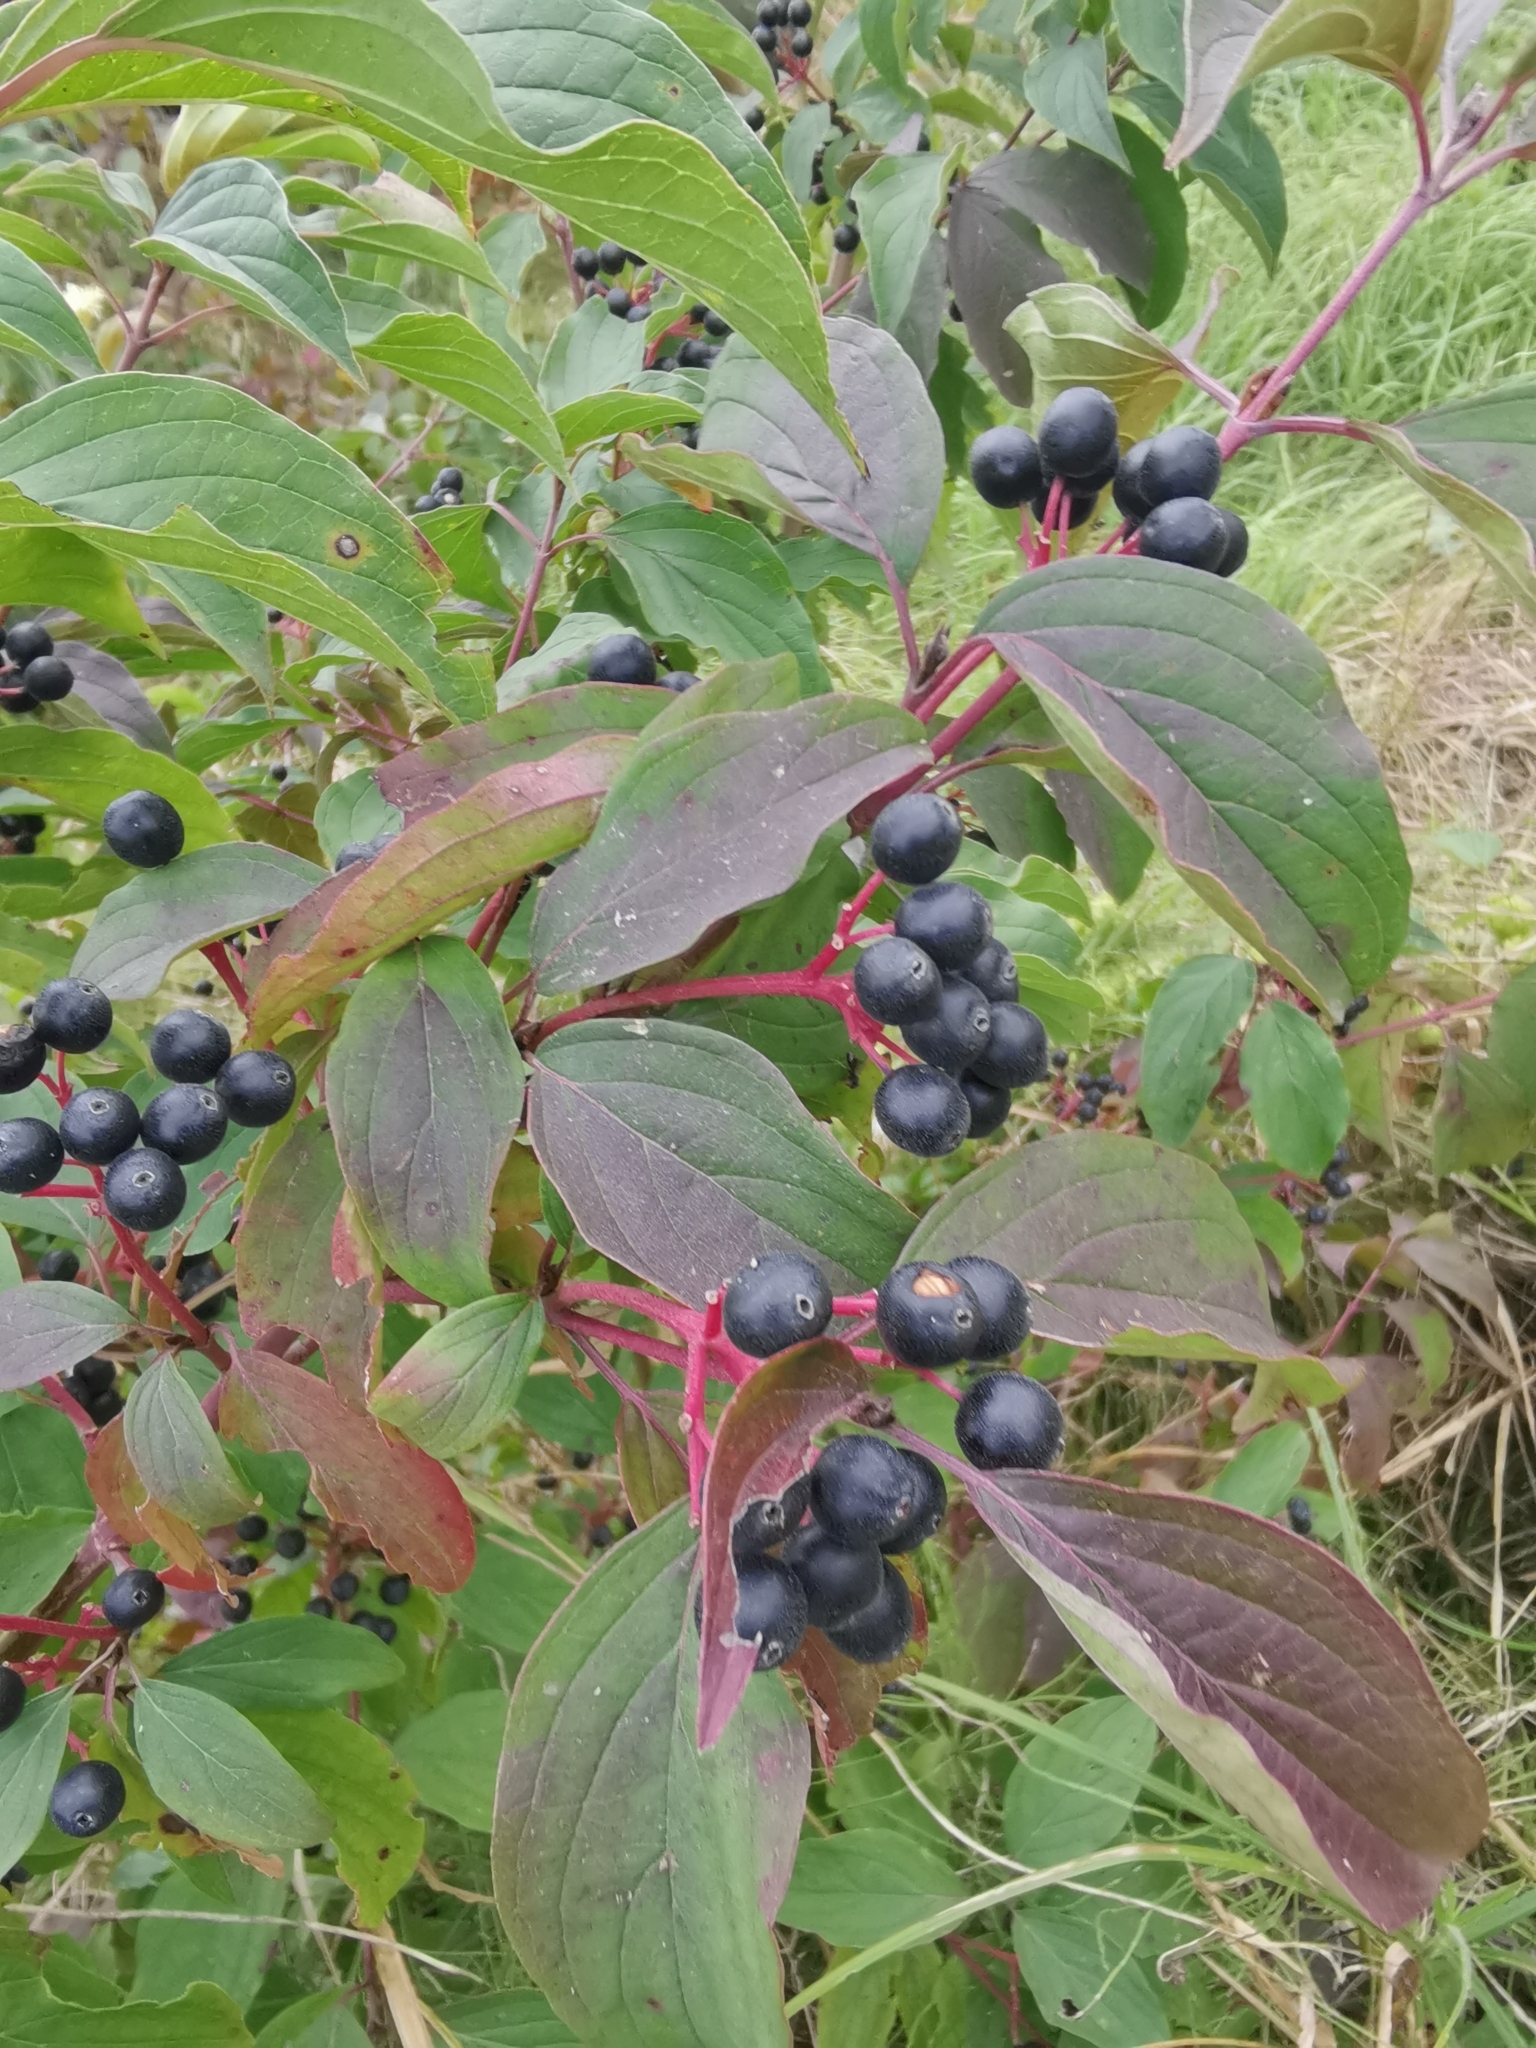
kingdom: Plantae
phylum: Tracheophyta
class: Magnoliopsida
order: Cornales
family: Cornaceae
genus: Cornus
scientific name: Cornus sanguinea
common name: Dogwood
